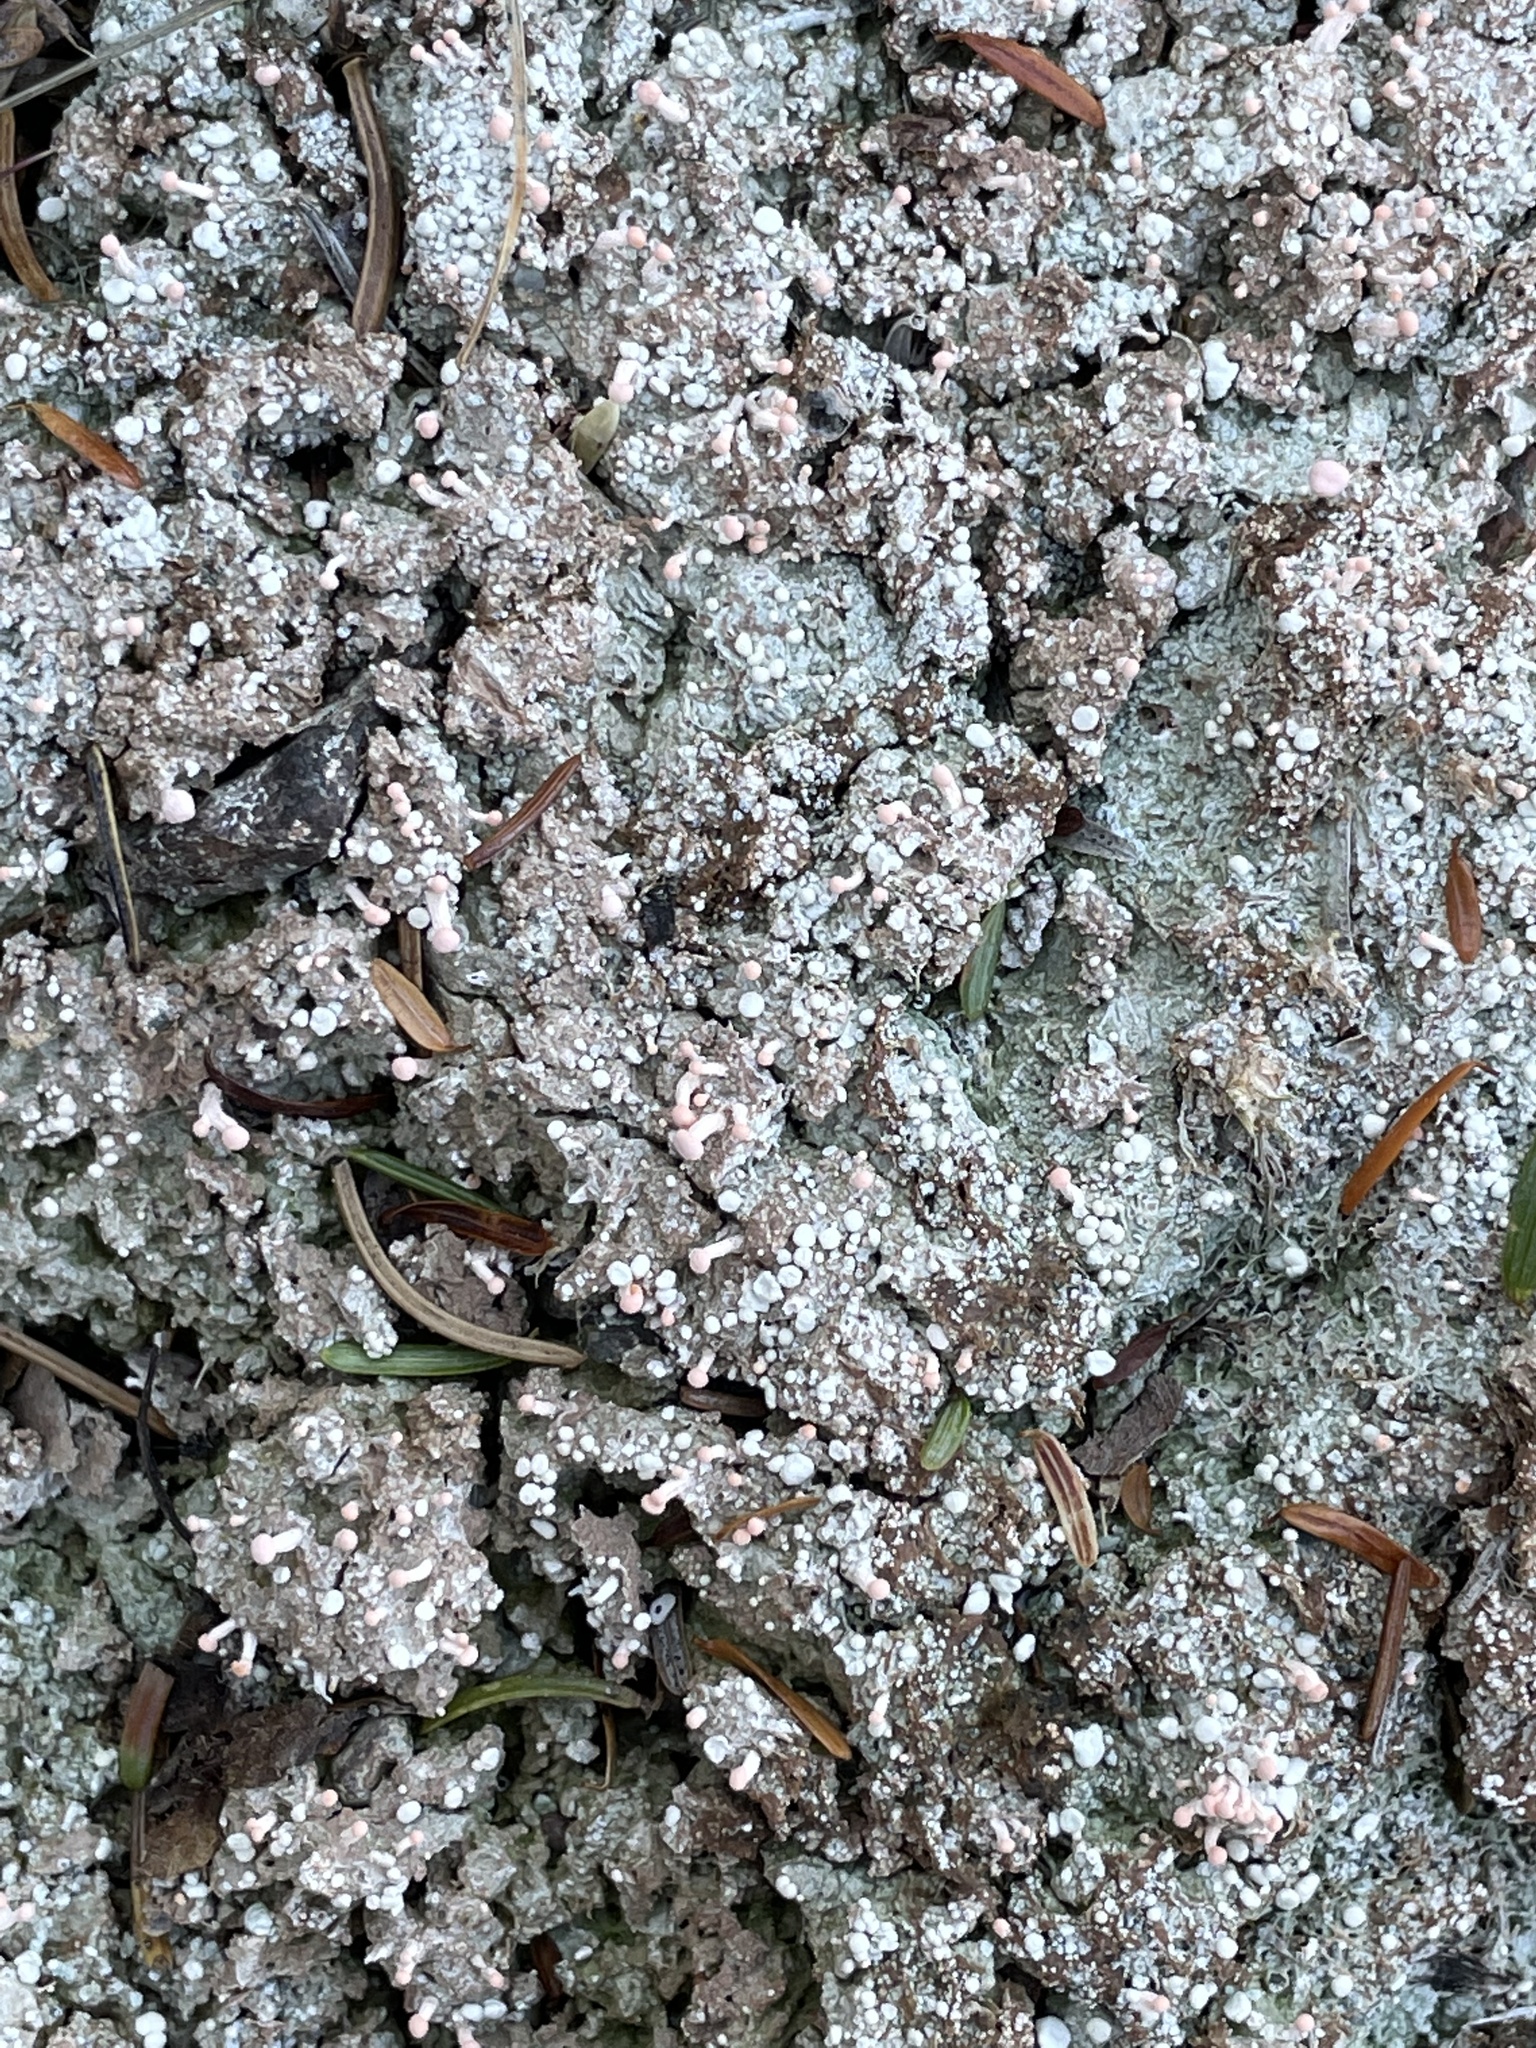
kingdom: Fungi
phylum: Ascomycota
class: Lecanoromycetes
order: Pertusariales
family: Icmadophilaceae
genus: Dibaeis
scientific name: Dibaeis baeomyces
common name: Pink earth lichen
